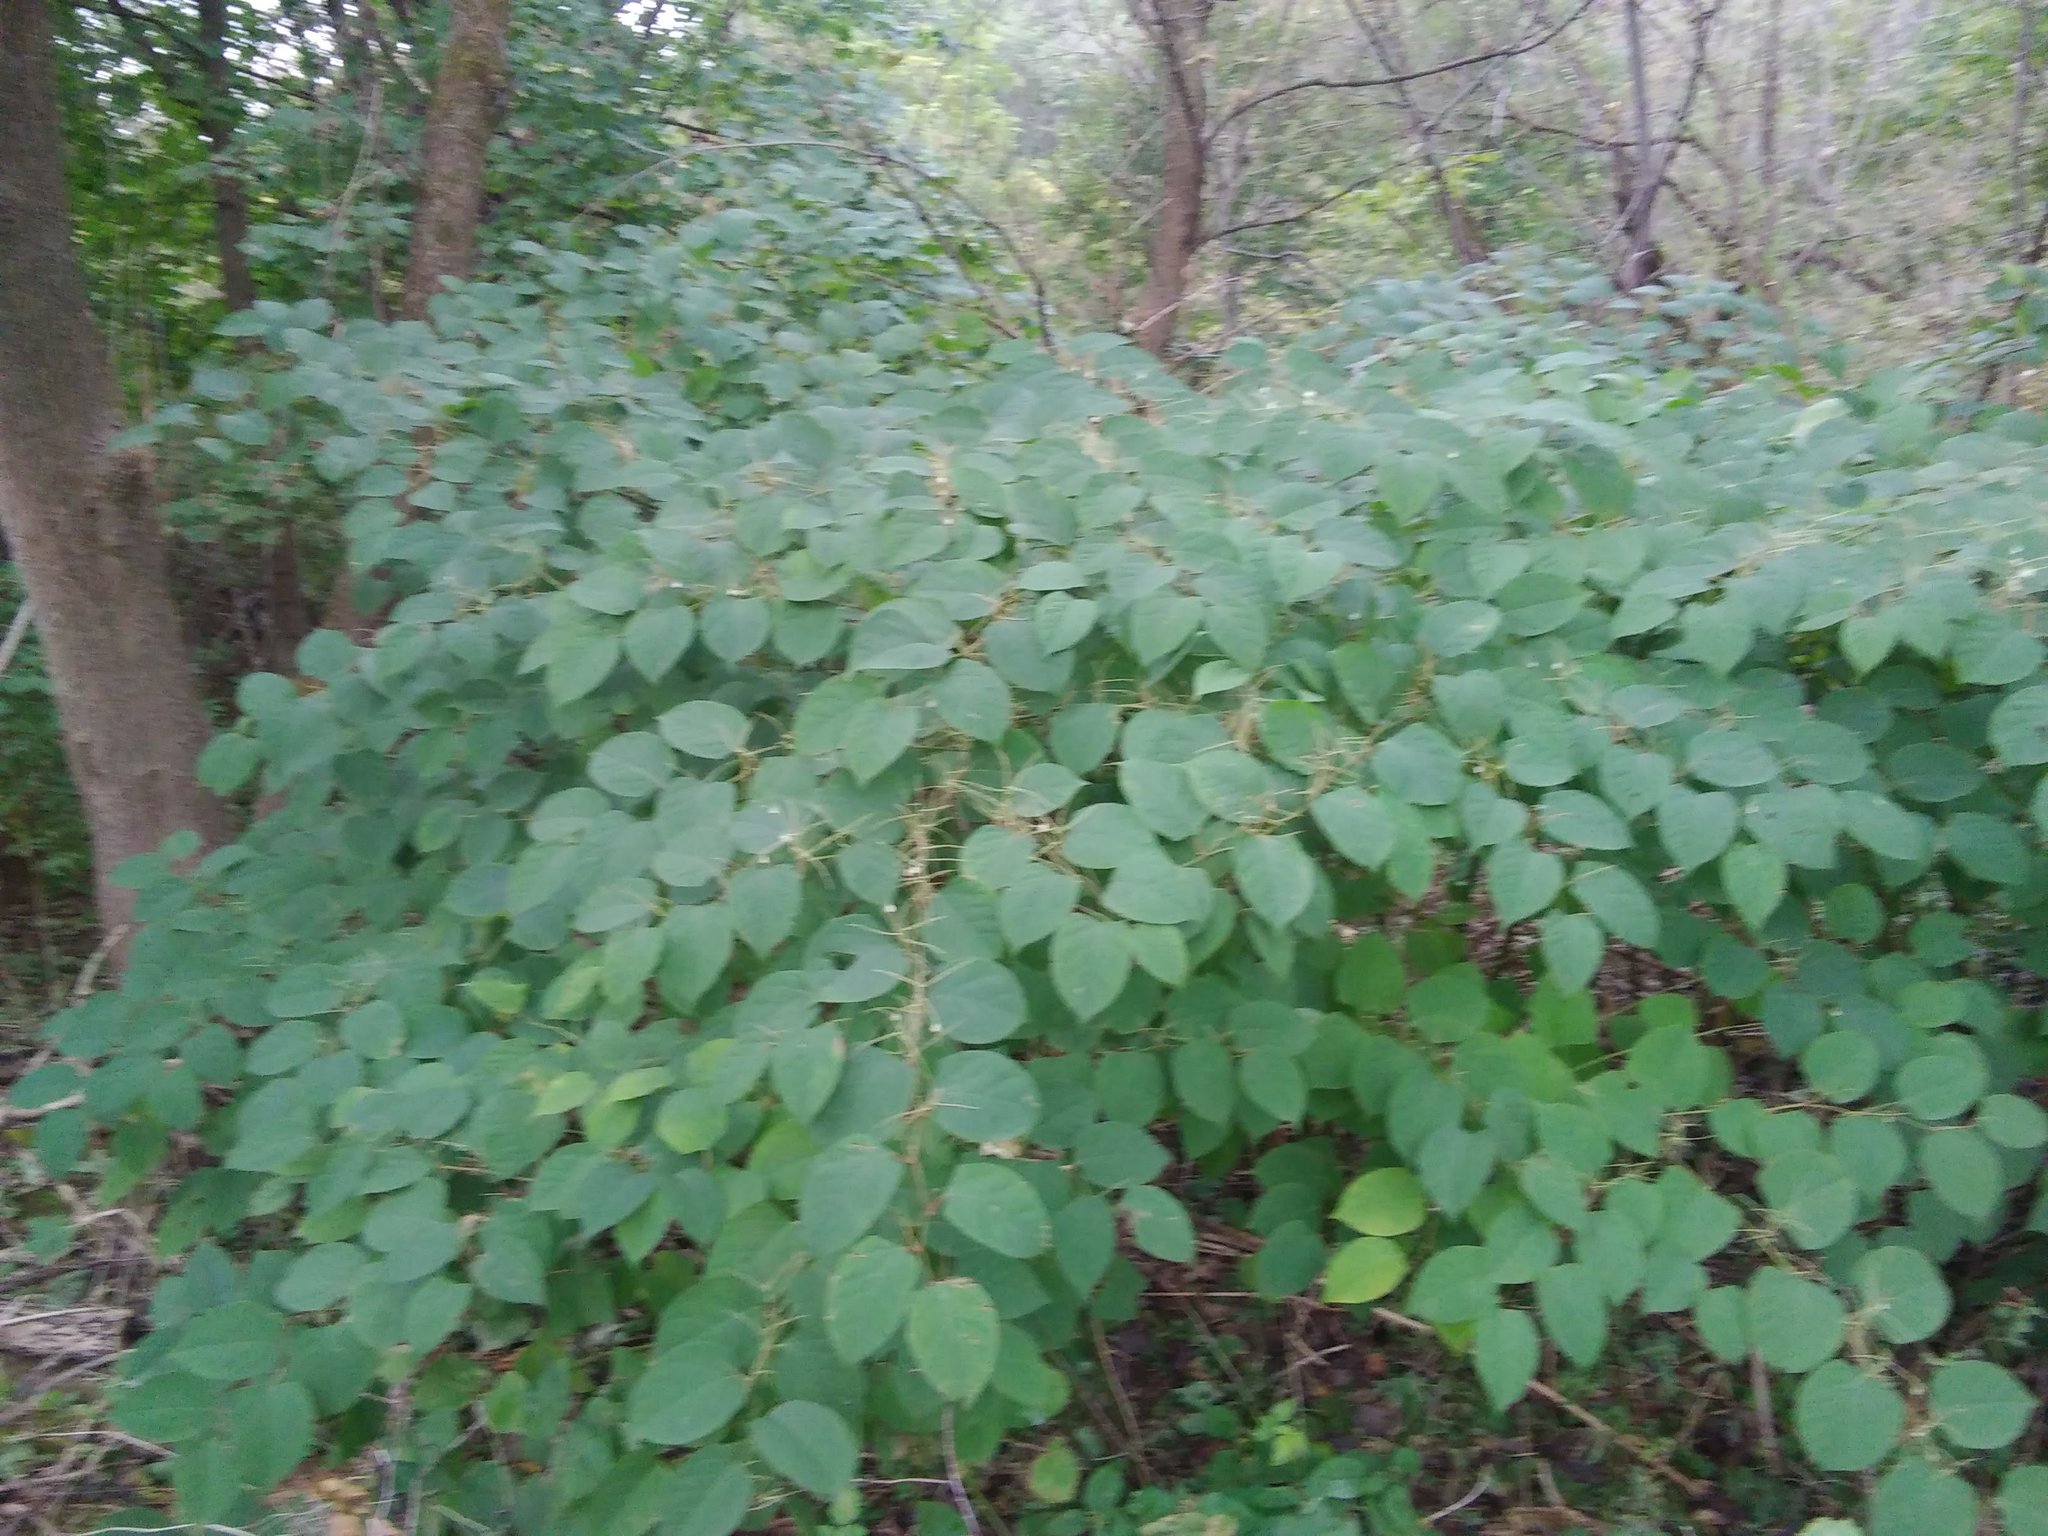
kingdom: Plantae
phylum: Tracheophyta
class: Magnoliopsida
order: Caryophyllales
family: Polygonaceae
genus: Reynoutria
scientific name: Reynoutria japonica
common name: Japanese knotweed
